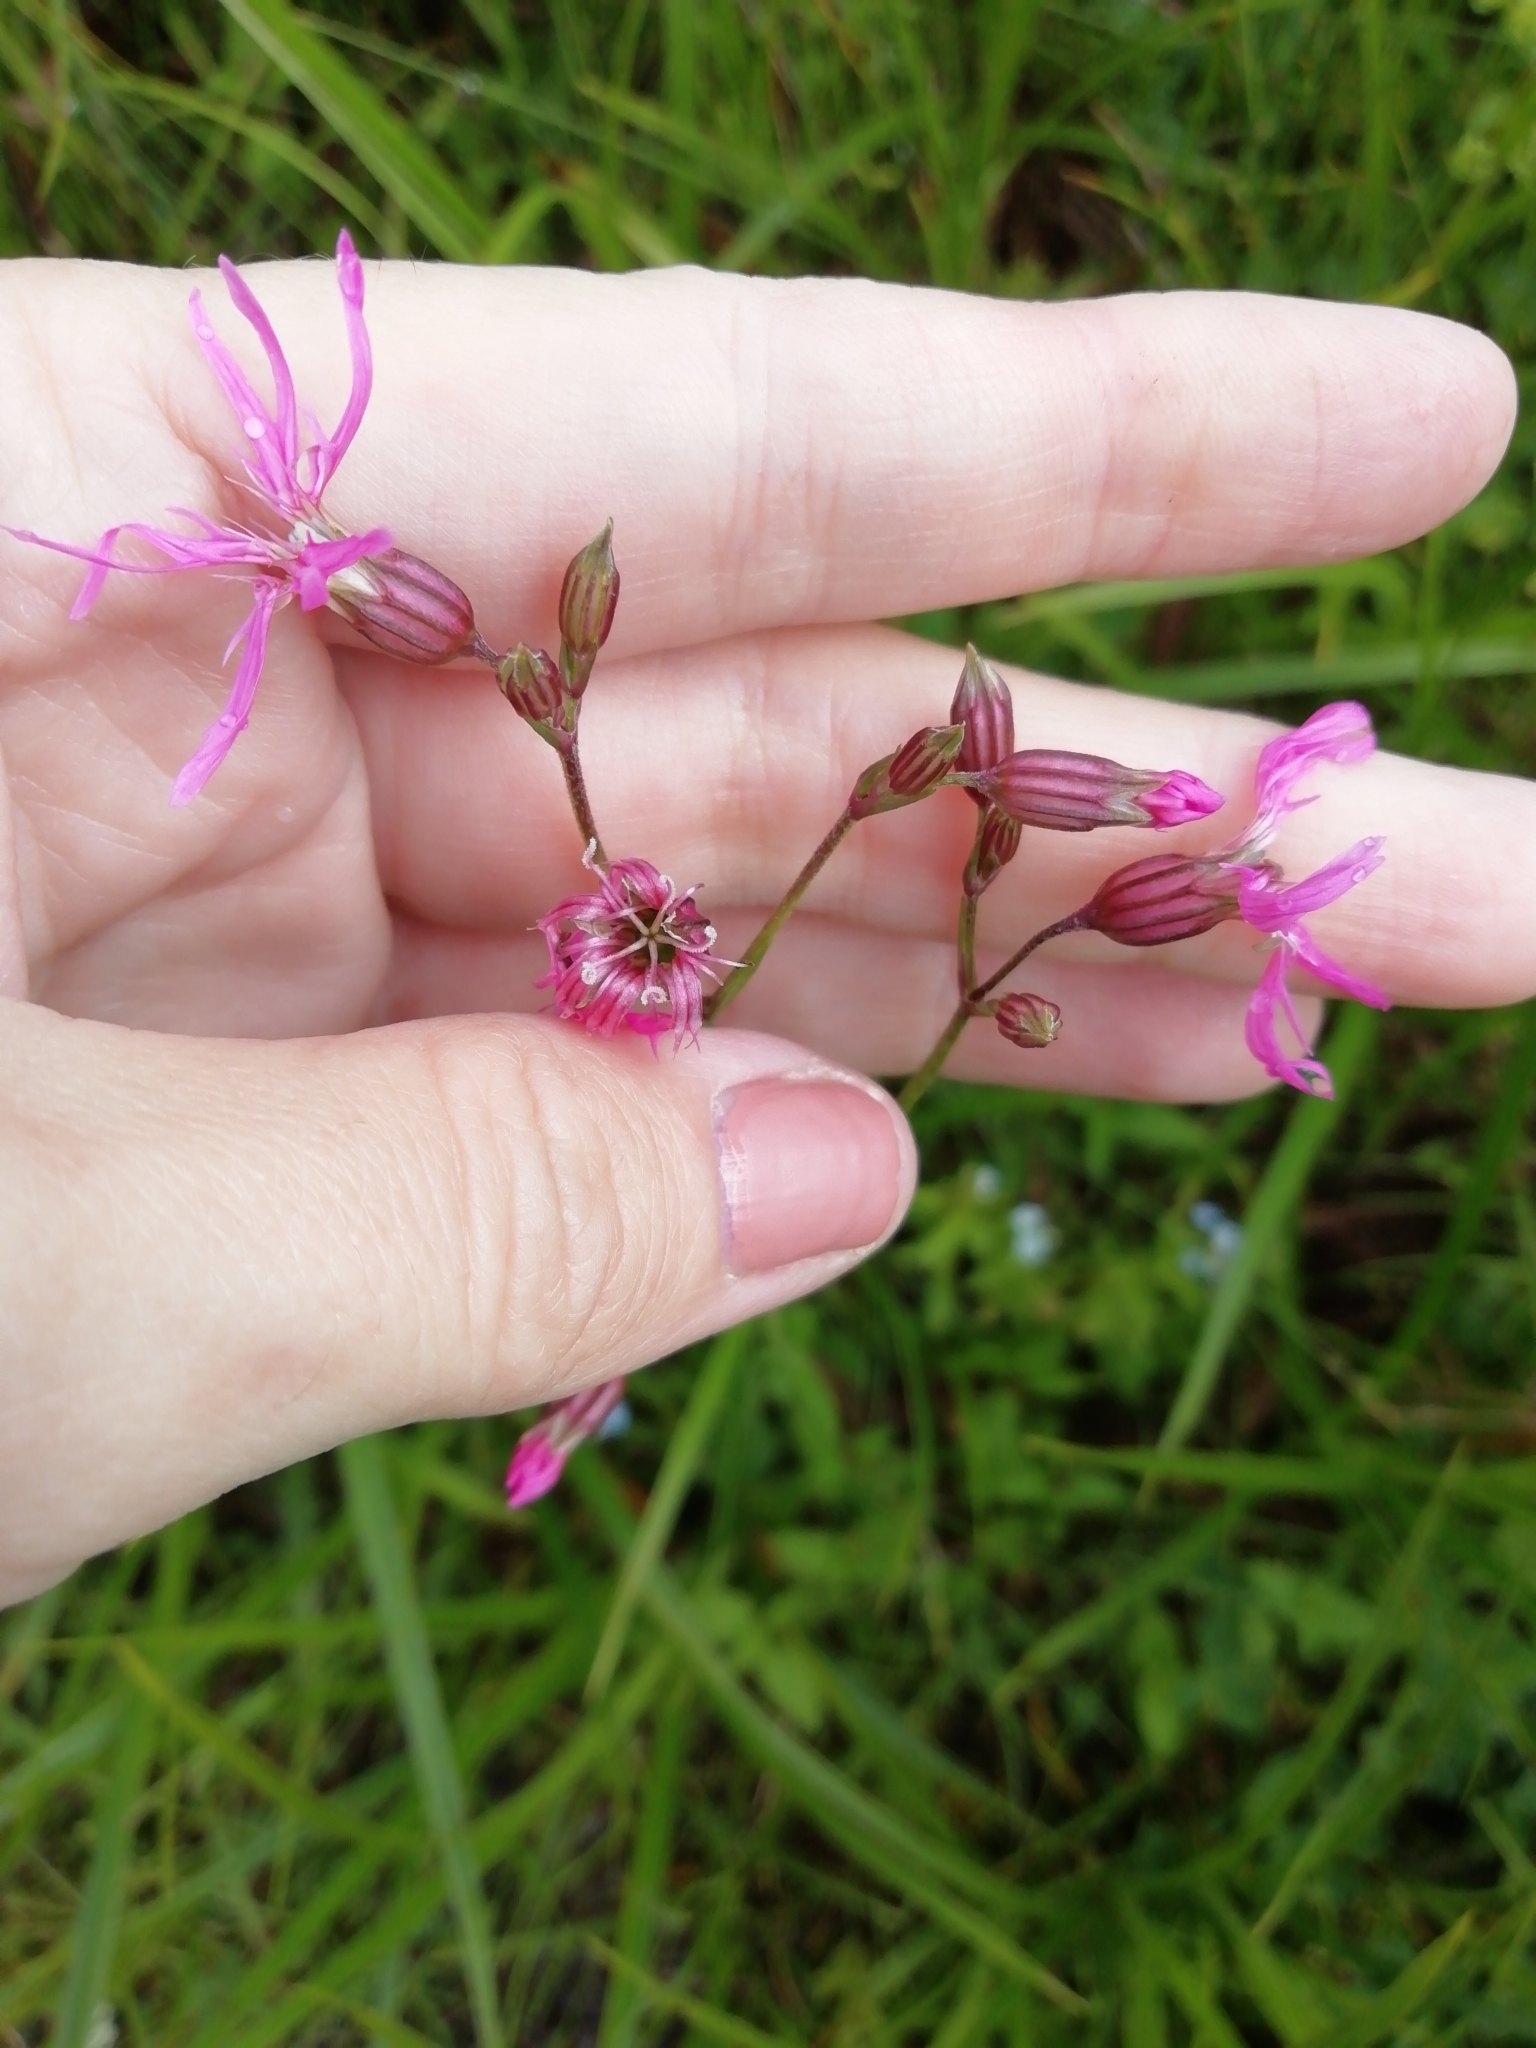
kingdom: Plantae
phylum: Tracheophyta
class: Magnoliopsida
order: Caryophyllales
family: Caryophyllaceae
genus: Silene
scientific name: Silene flos-cuculi
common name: Ragged-robin
